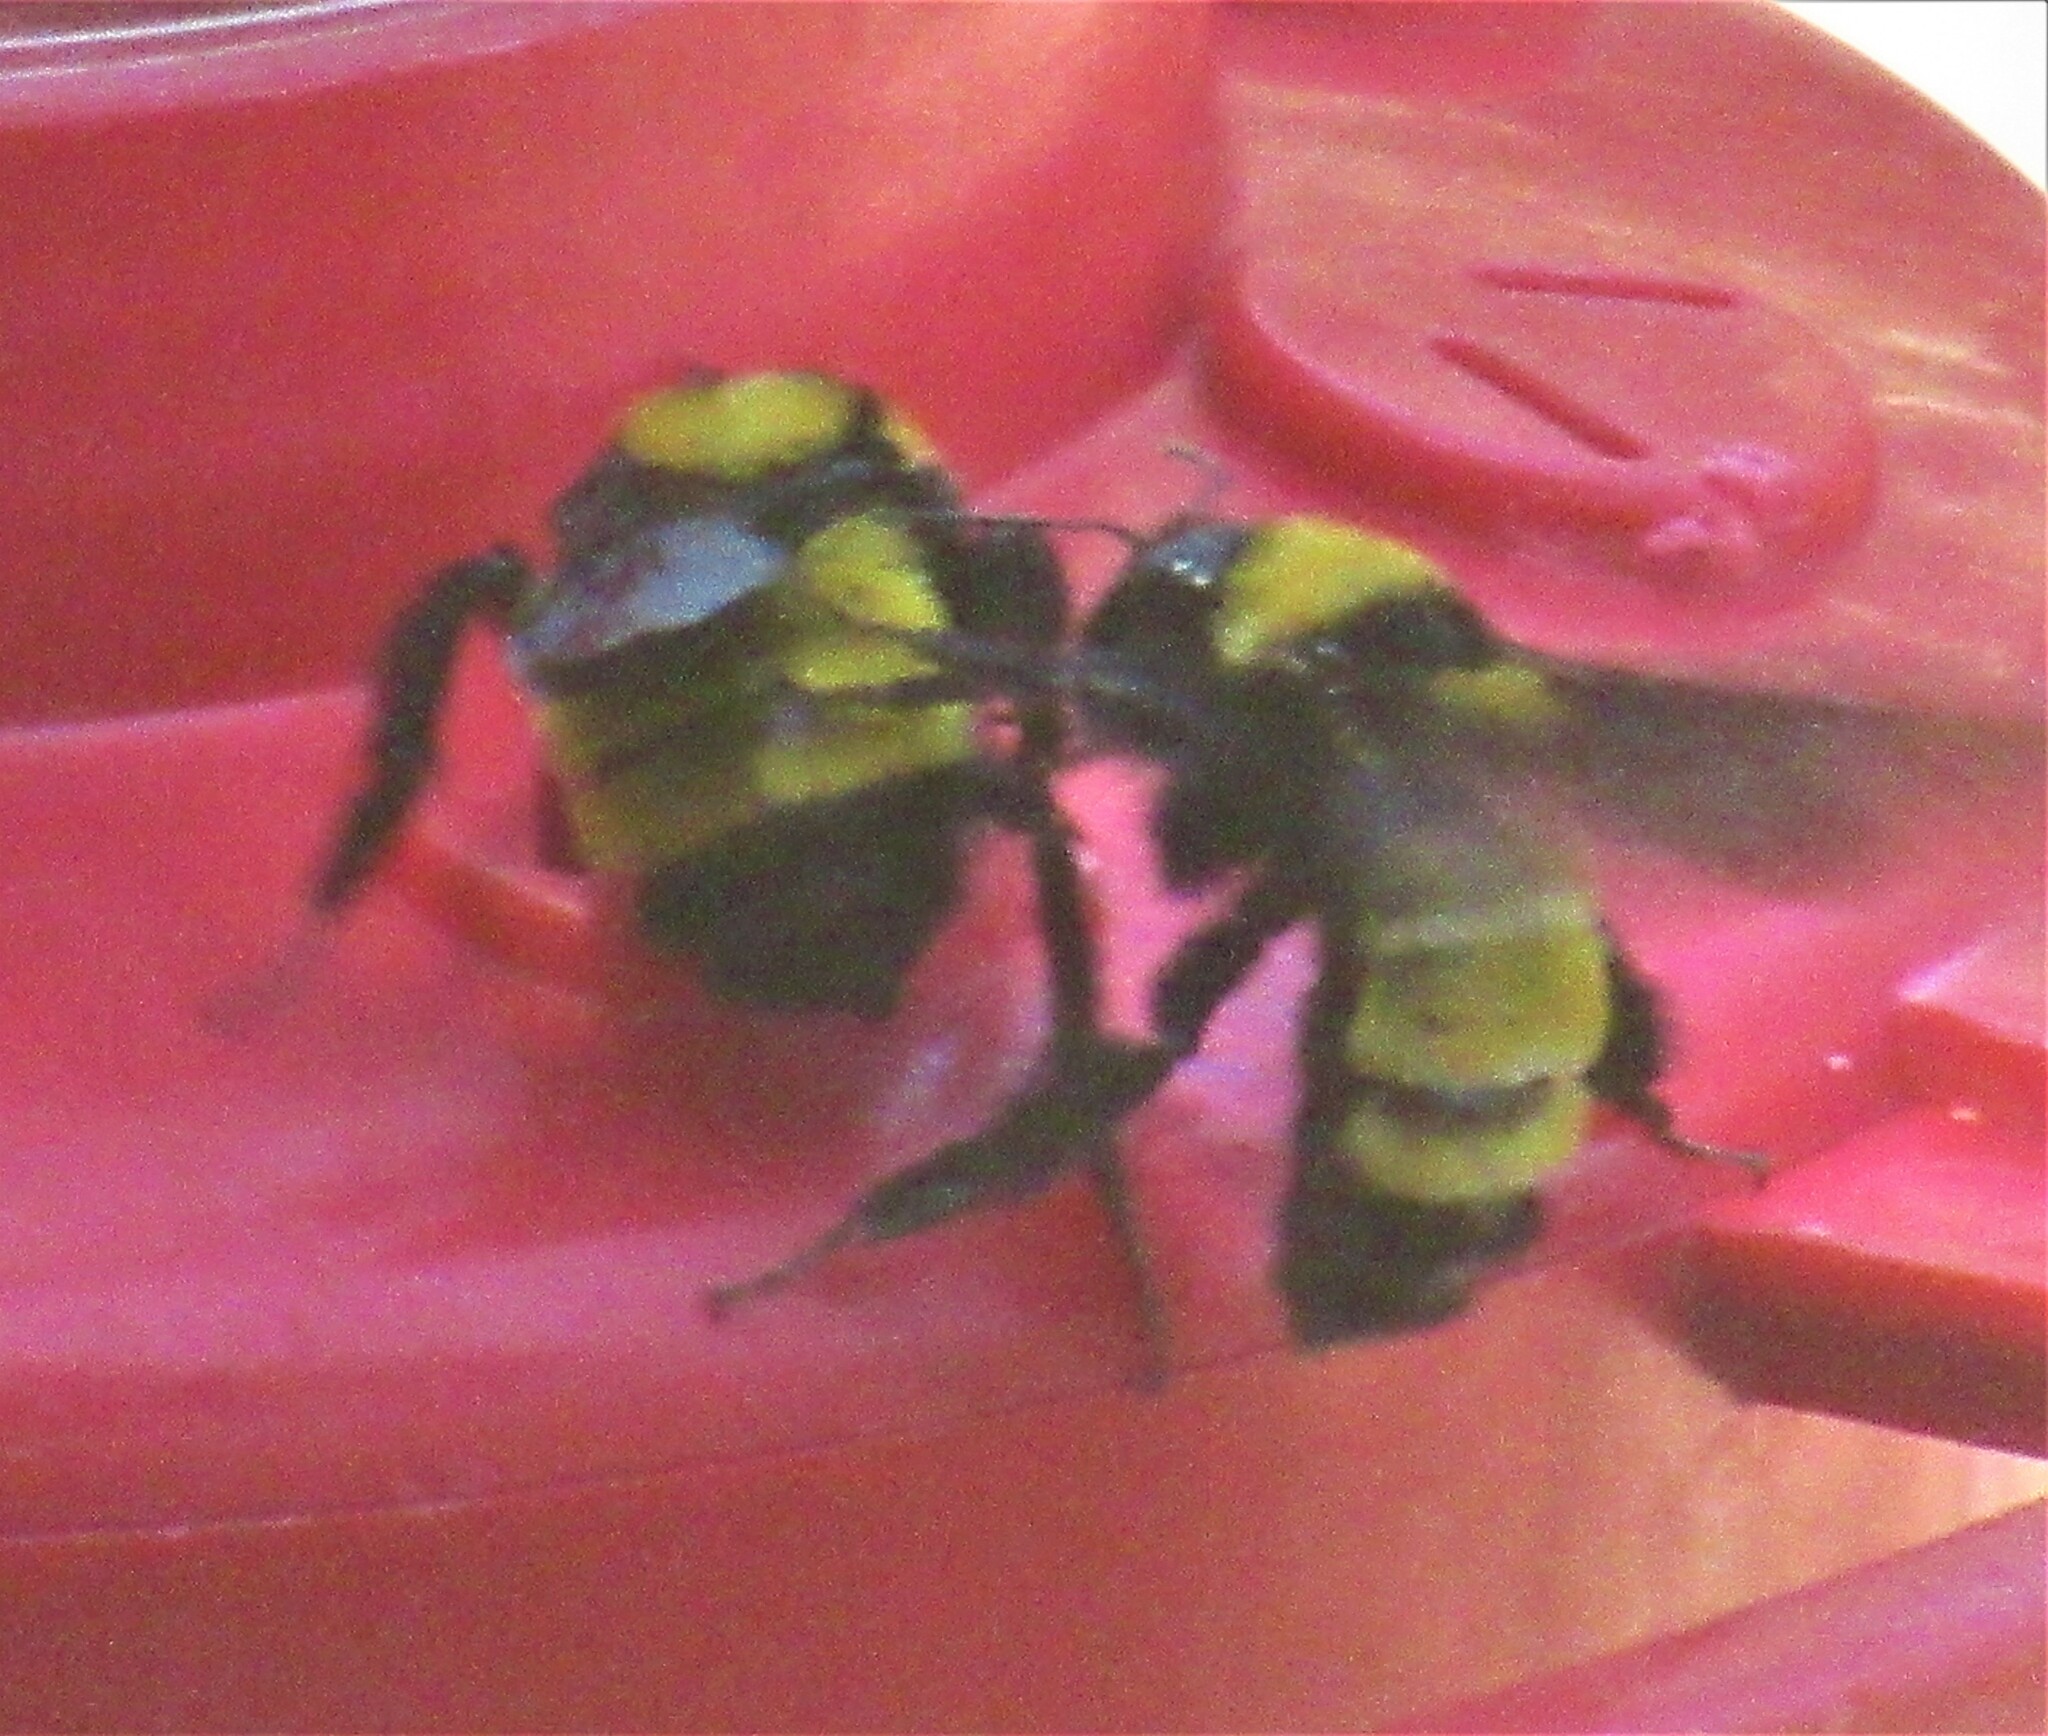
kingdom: Animalia
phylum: Arthropoda
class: Insecta
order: Hymenoptera
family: Apidae
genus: Bombus
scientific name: Bombus sonorus
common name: Sonoran bumble bee
